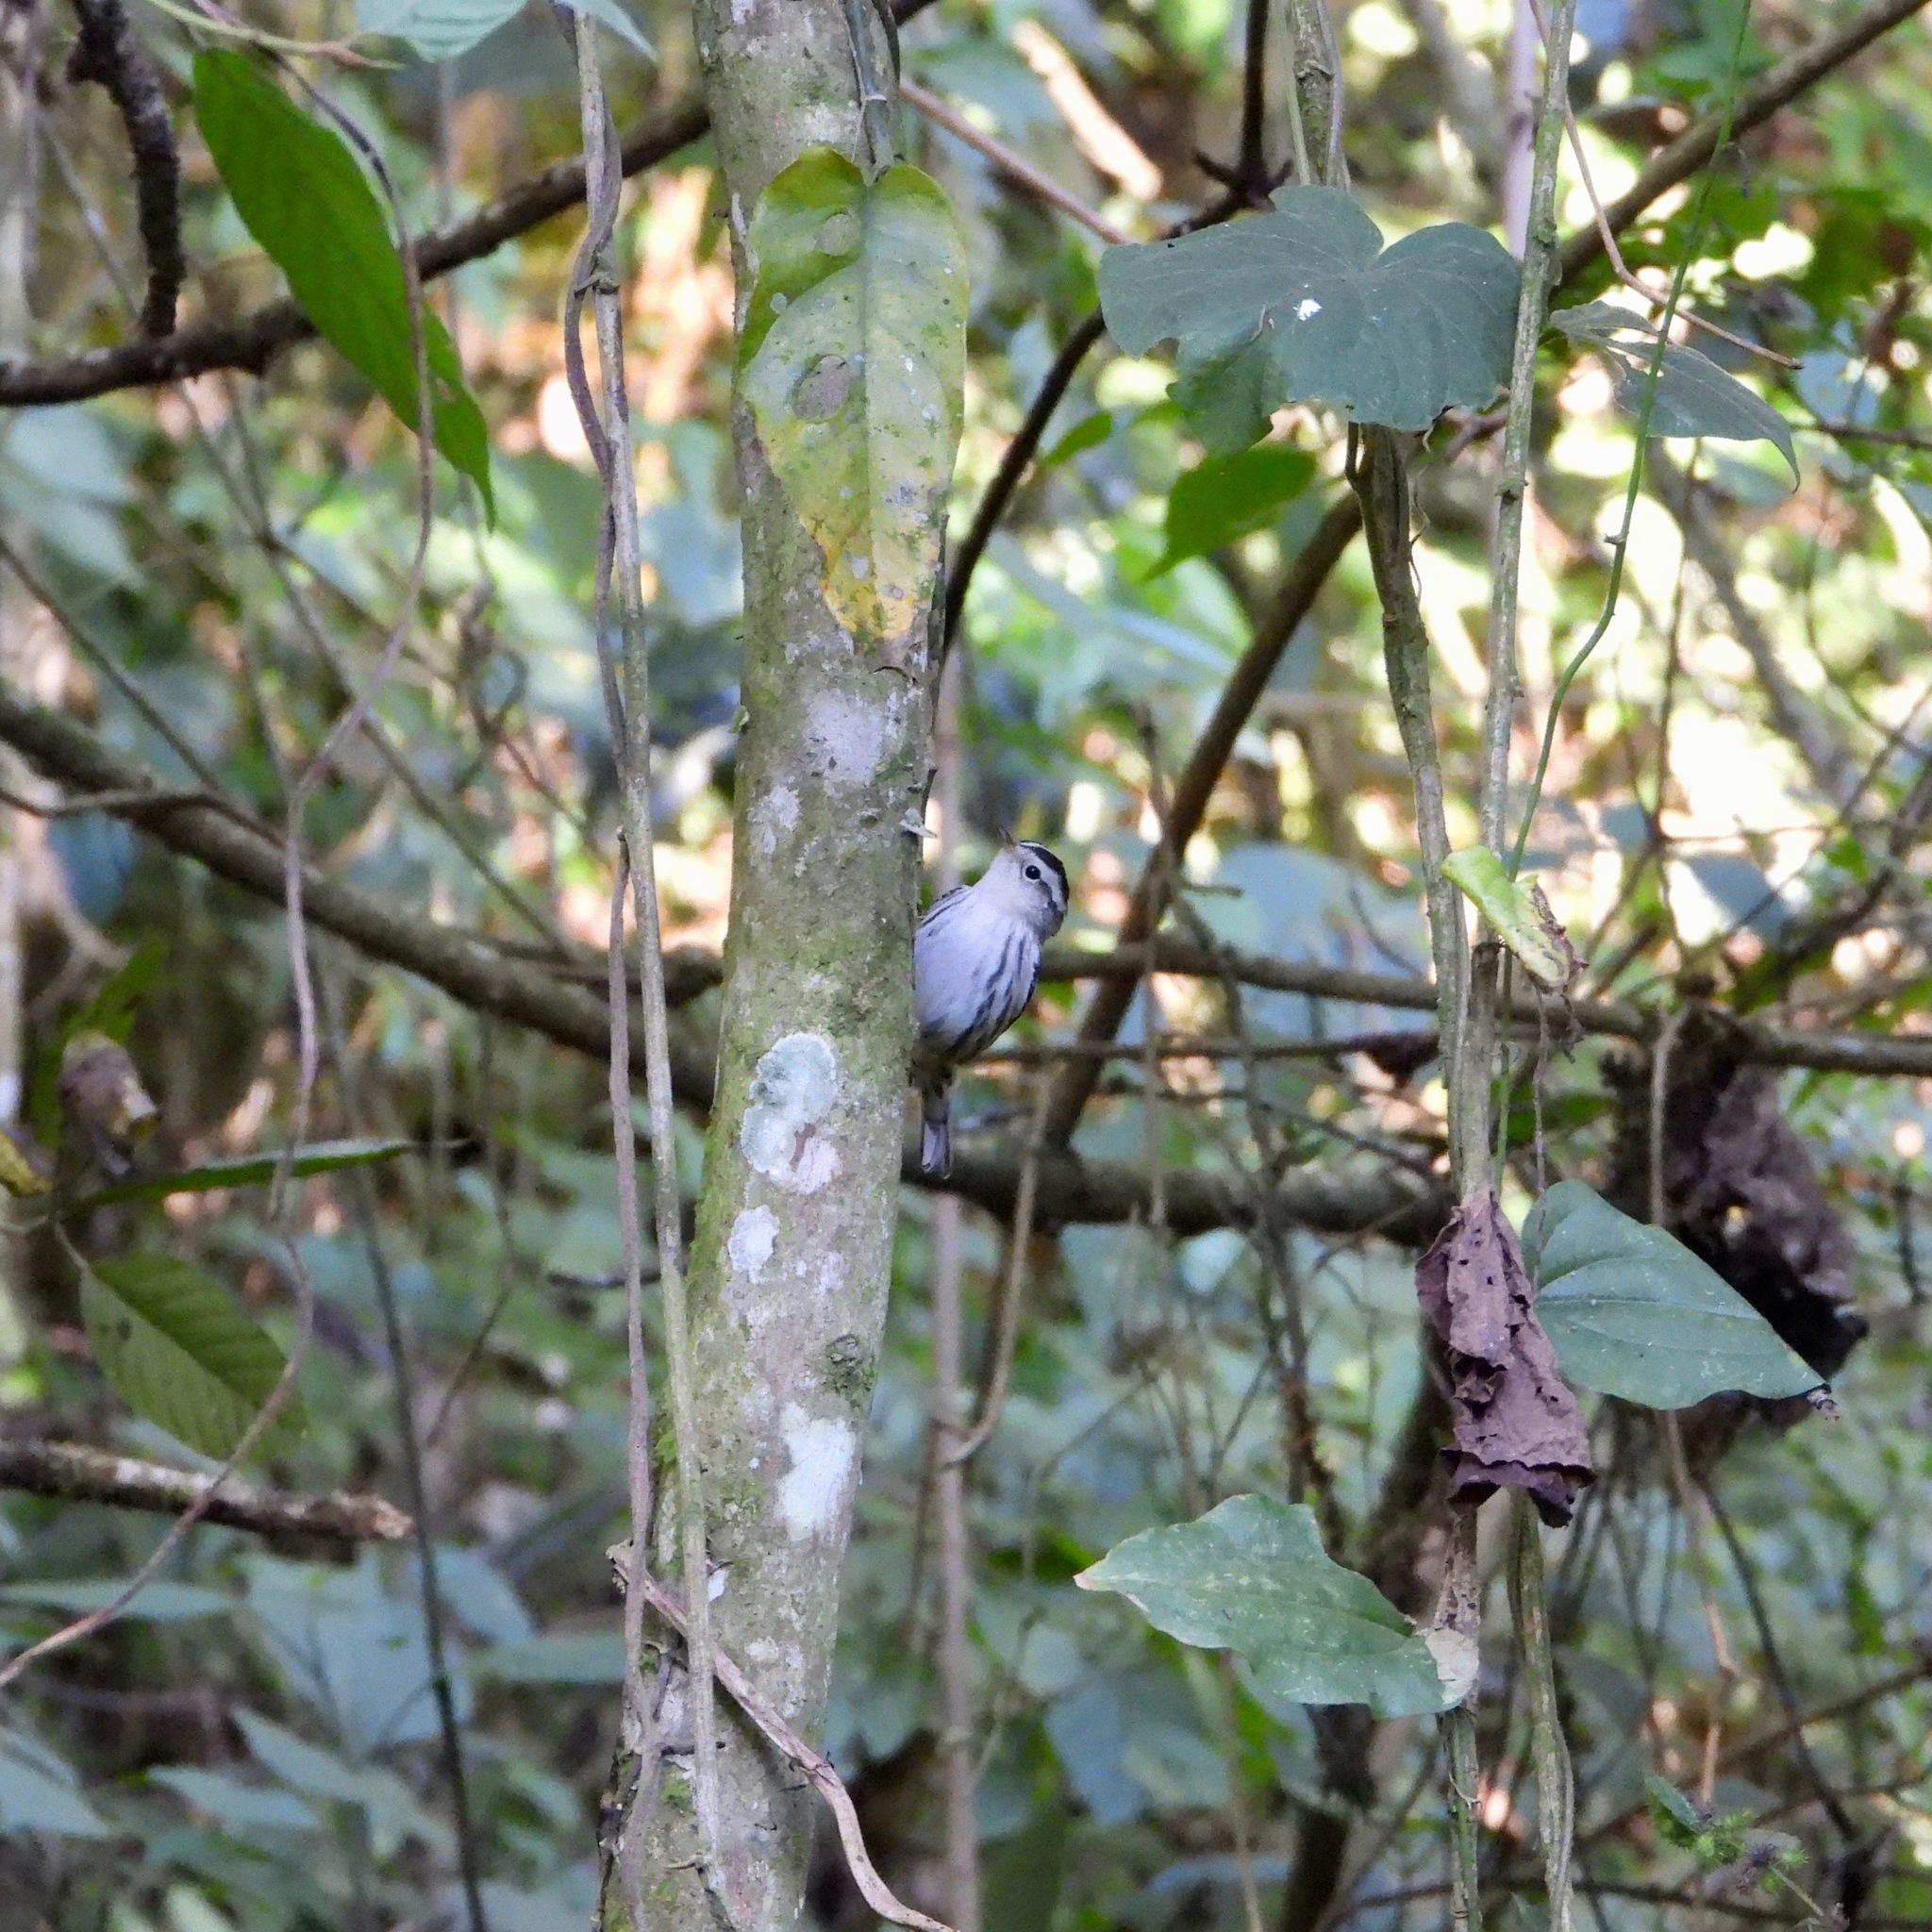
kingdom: Animalia
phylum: Chordata
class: Aves
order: Passeriformes
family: Parulidae
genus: Mniotilta
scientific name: Mniotilta varia
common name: Black-and-white warbler
